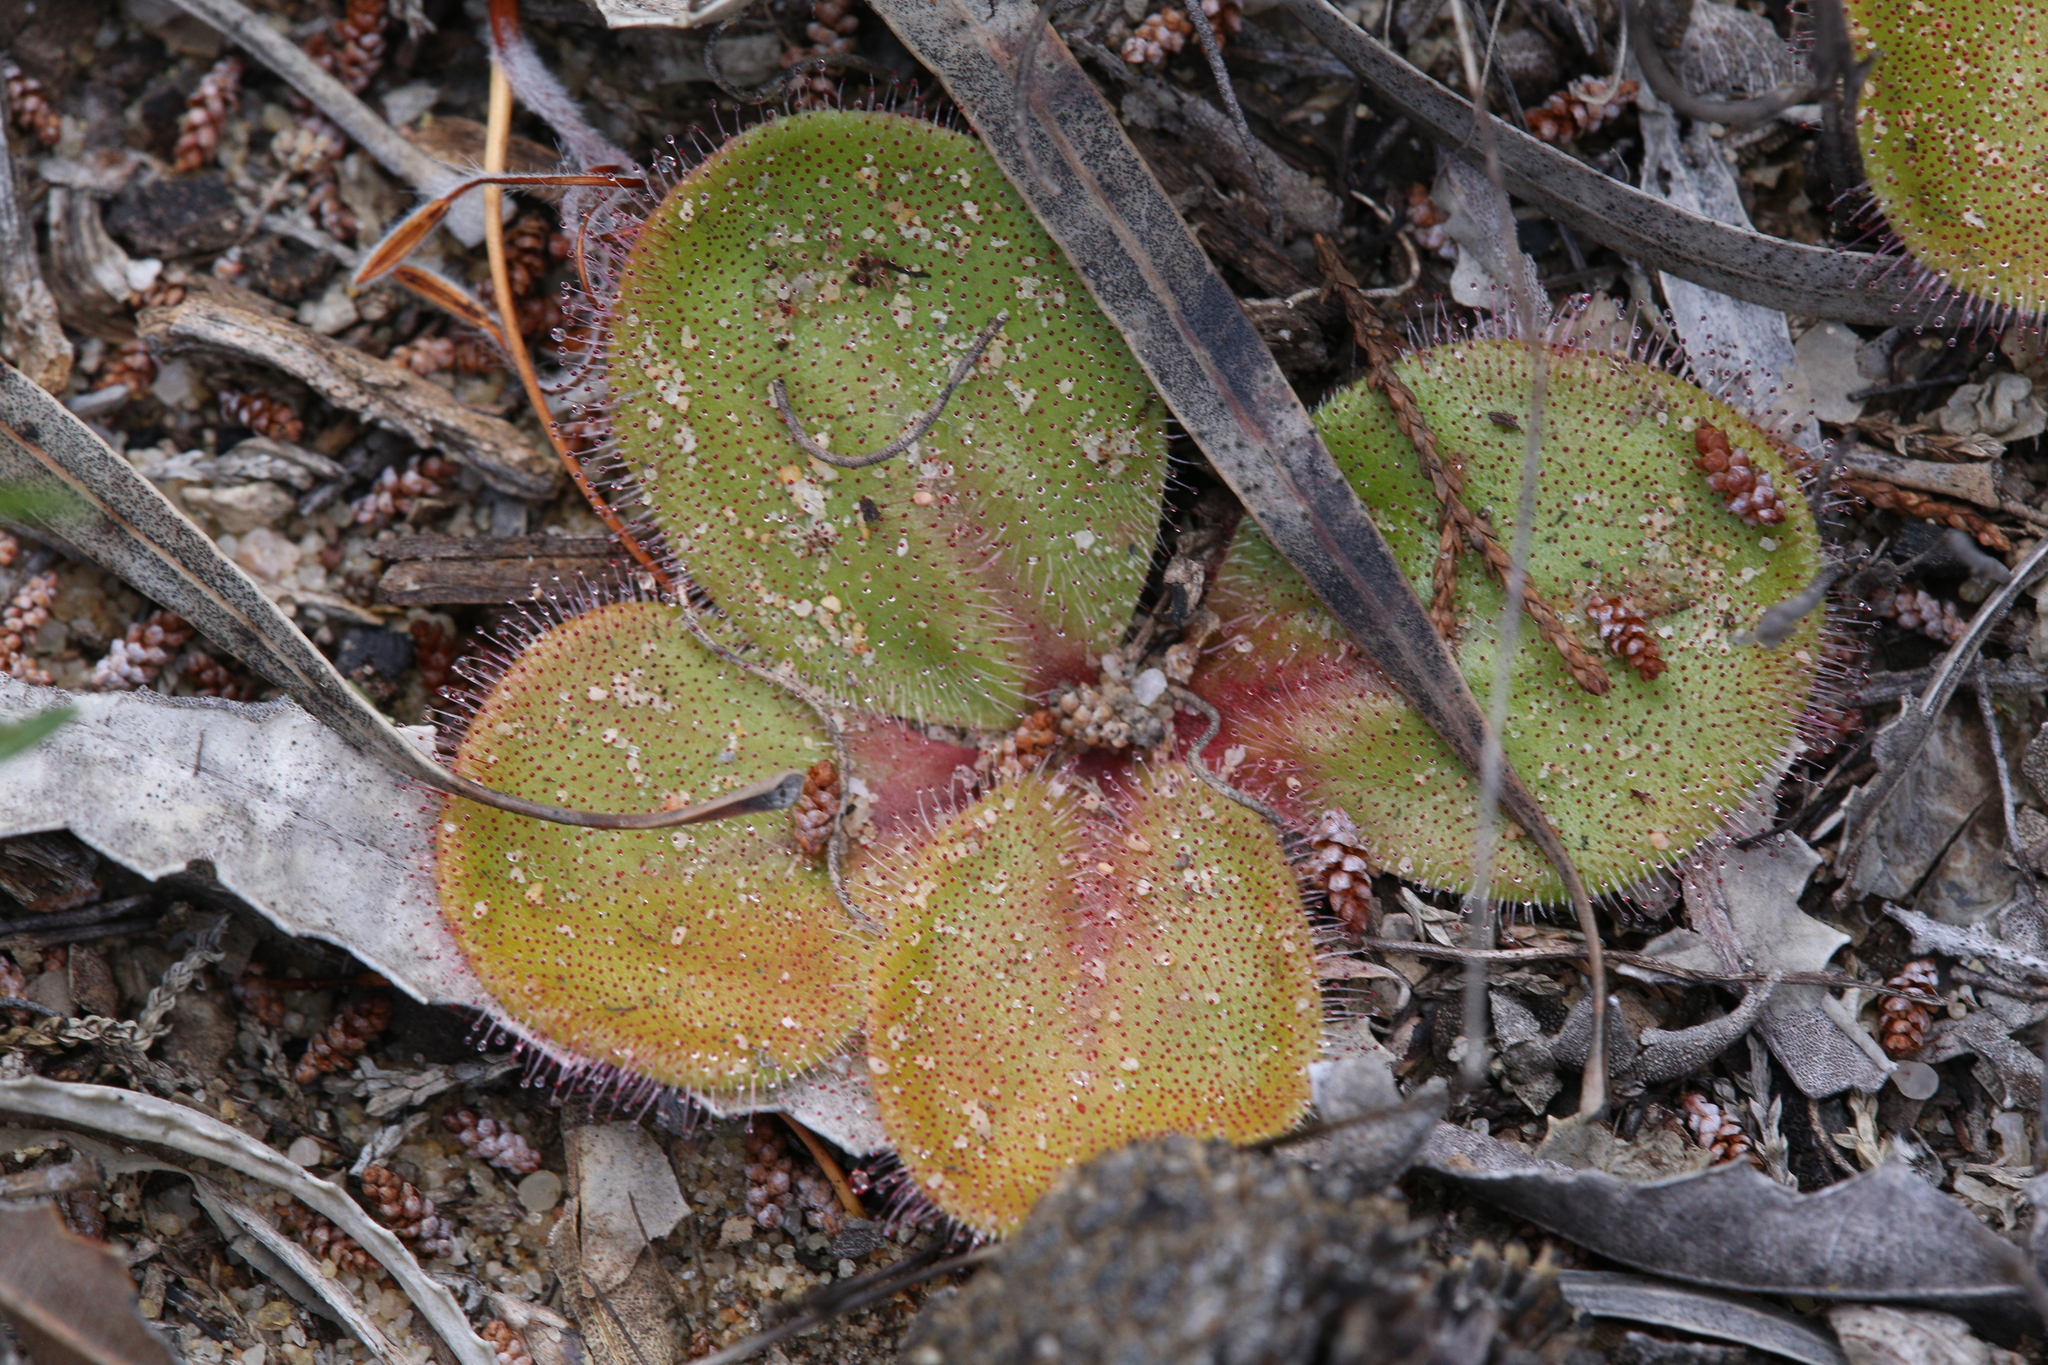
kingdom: Plantae
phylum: Tracheophyta
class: Magnoliopsida
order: Caryophyllales
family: Droseraceae
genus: Drosera
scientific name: Drosera erythrorhiza
